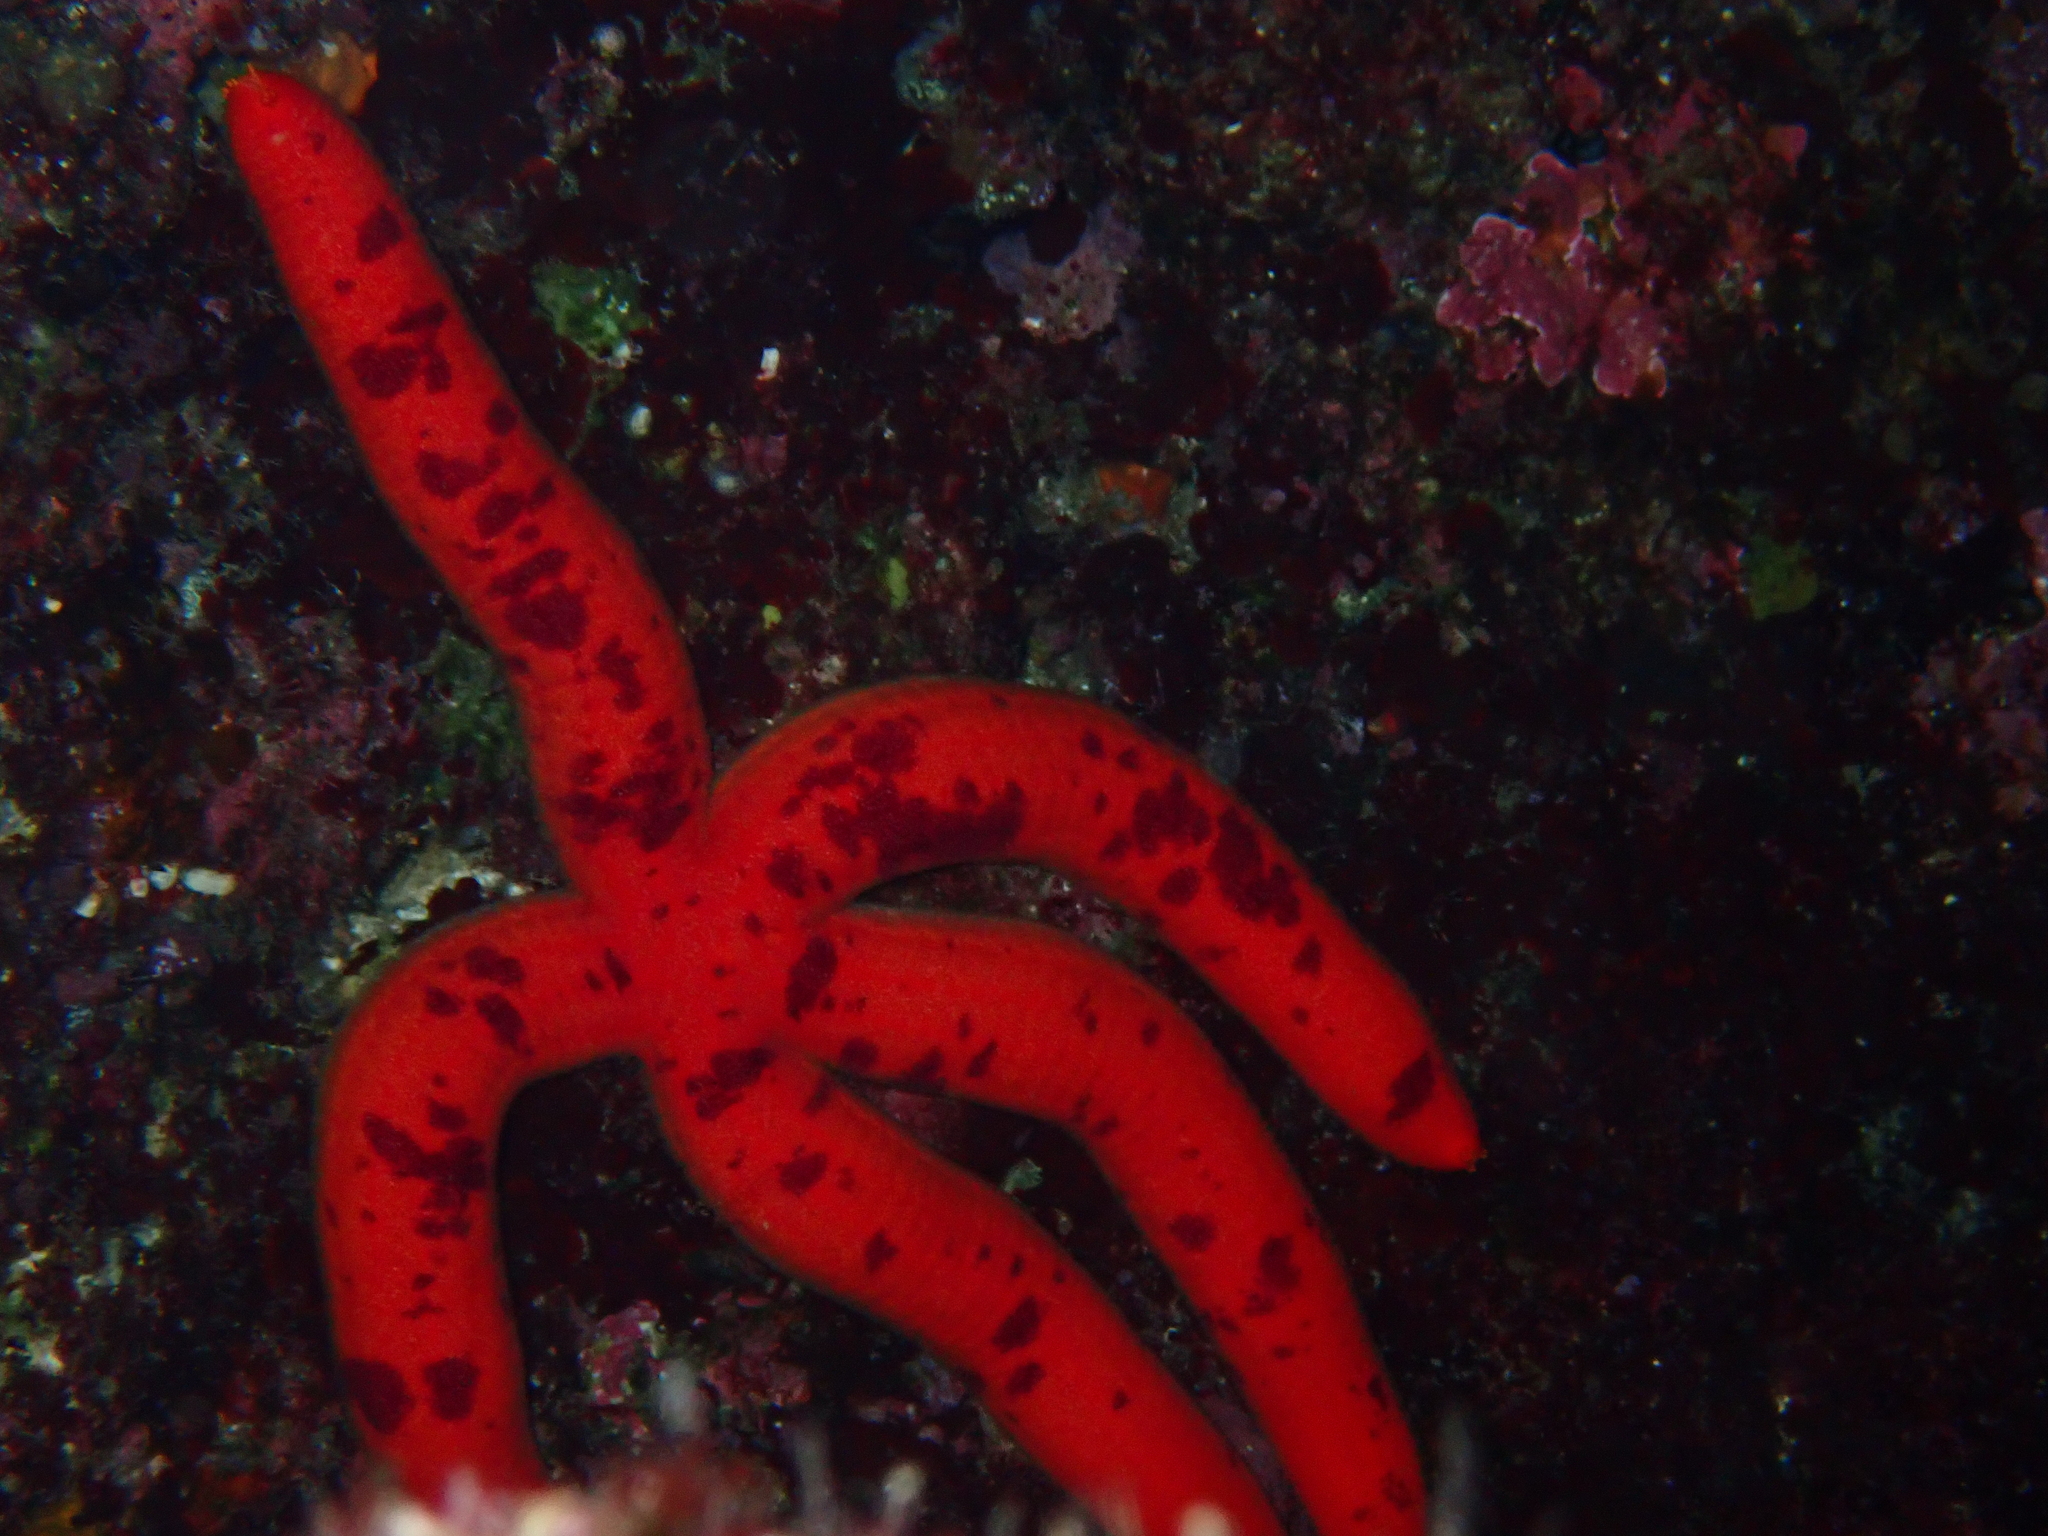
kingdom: Animalia
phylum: Echinodermata
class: Asteroidea
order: Valvatida
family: Ophidiasteridae
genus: Ophidiaster
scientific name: Ophidiaster ophidianus
